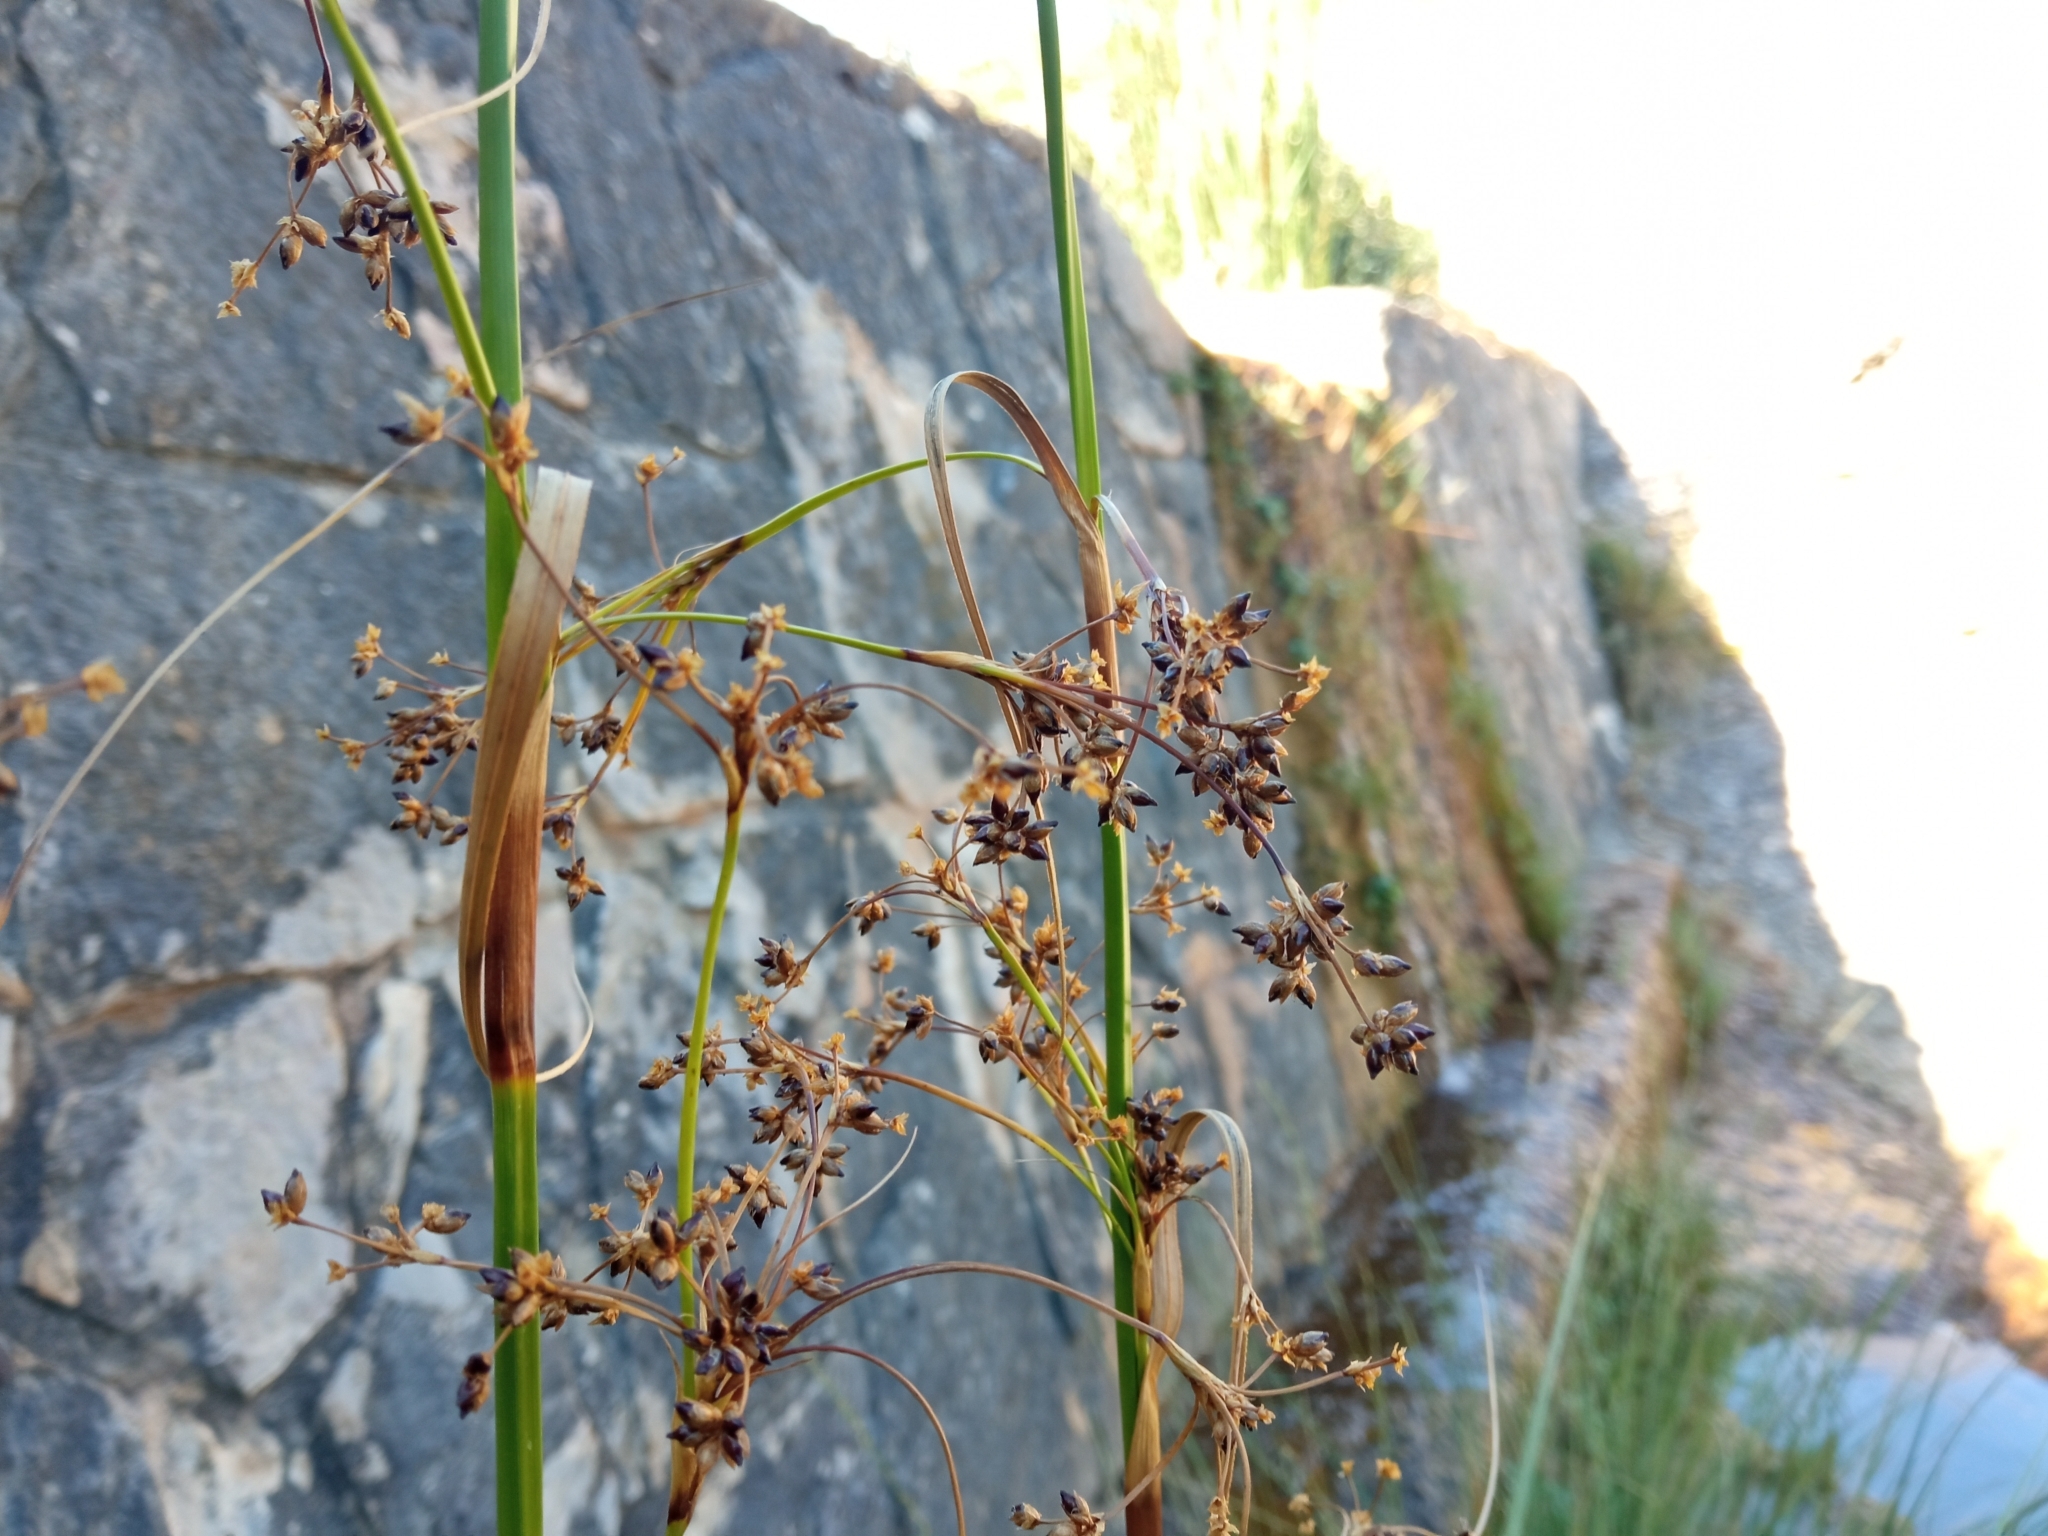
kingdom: Plantae
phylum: Tracheophyta
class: Liliopsida
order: Poales
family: Cyperaceae
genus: Cladium
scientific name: Cladium mariscus
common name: Great fen-sedge
